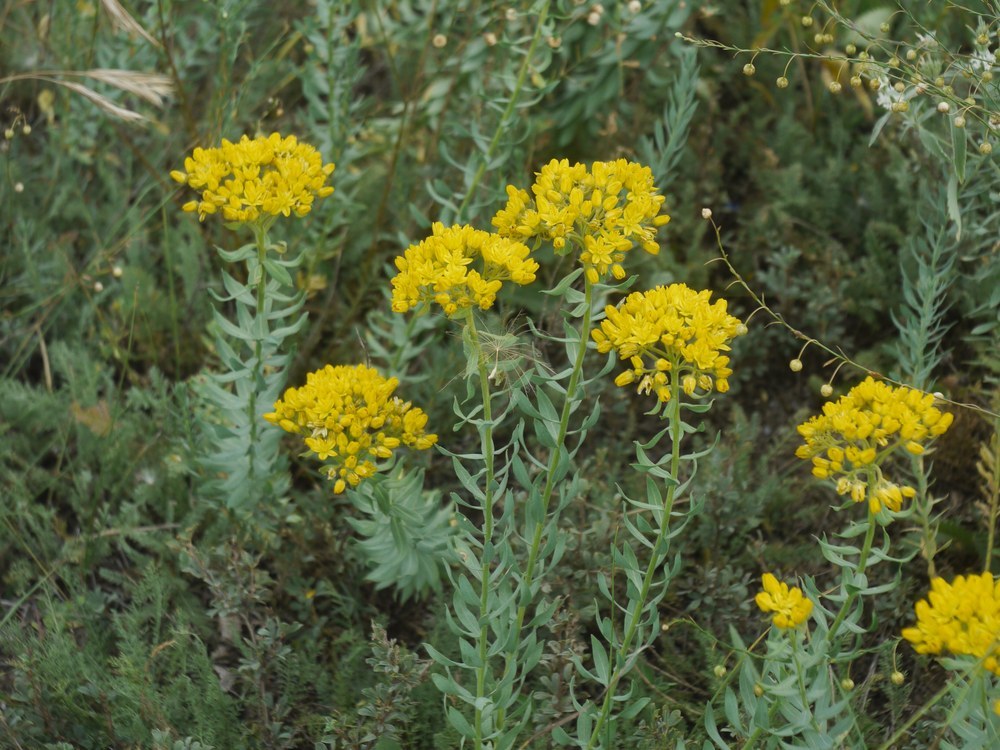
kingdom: Plantae
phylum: Tracheophyta
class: Magnoliopsida
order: Sapindales
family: Rutaceae
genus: Haplophyllum
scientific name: Haplophyllum suaveolens
